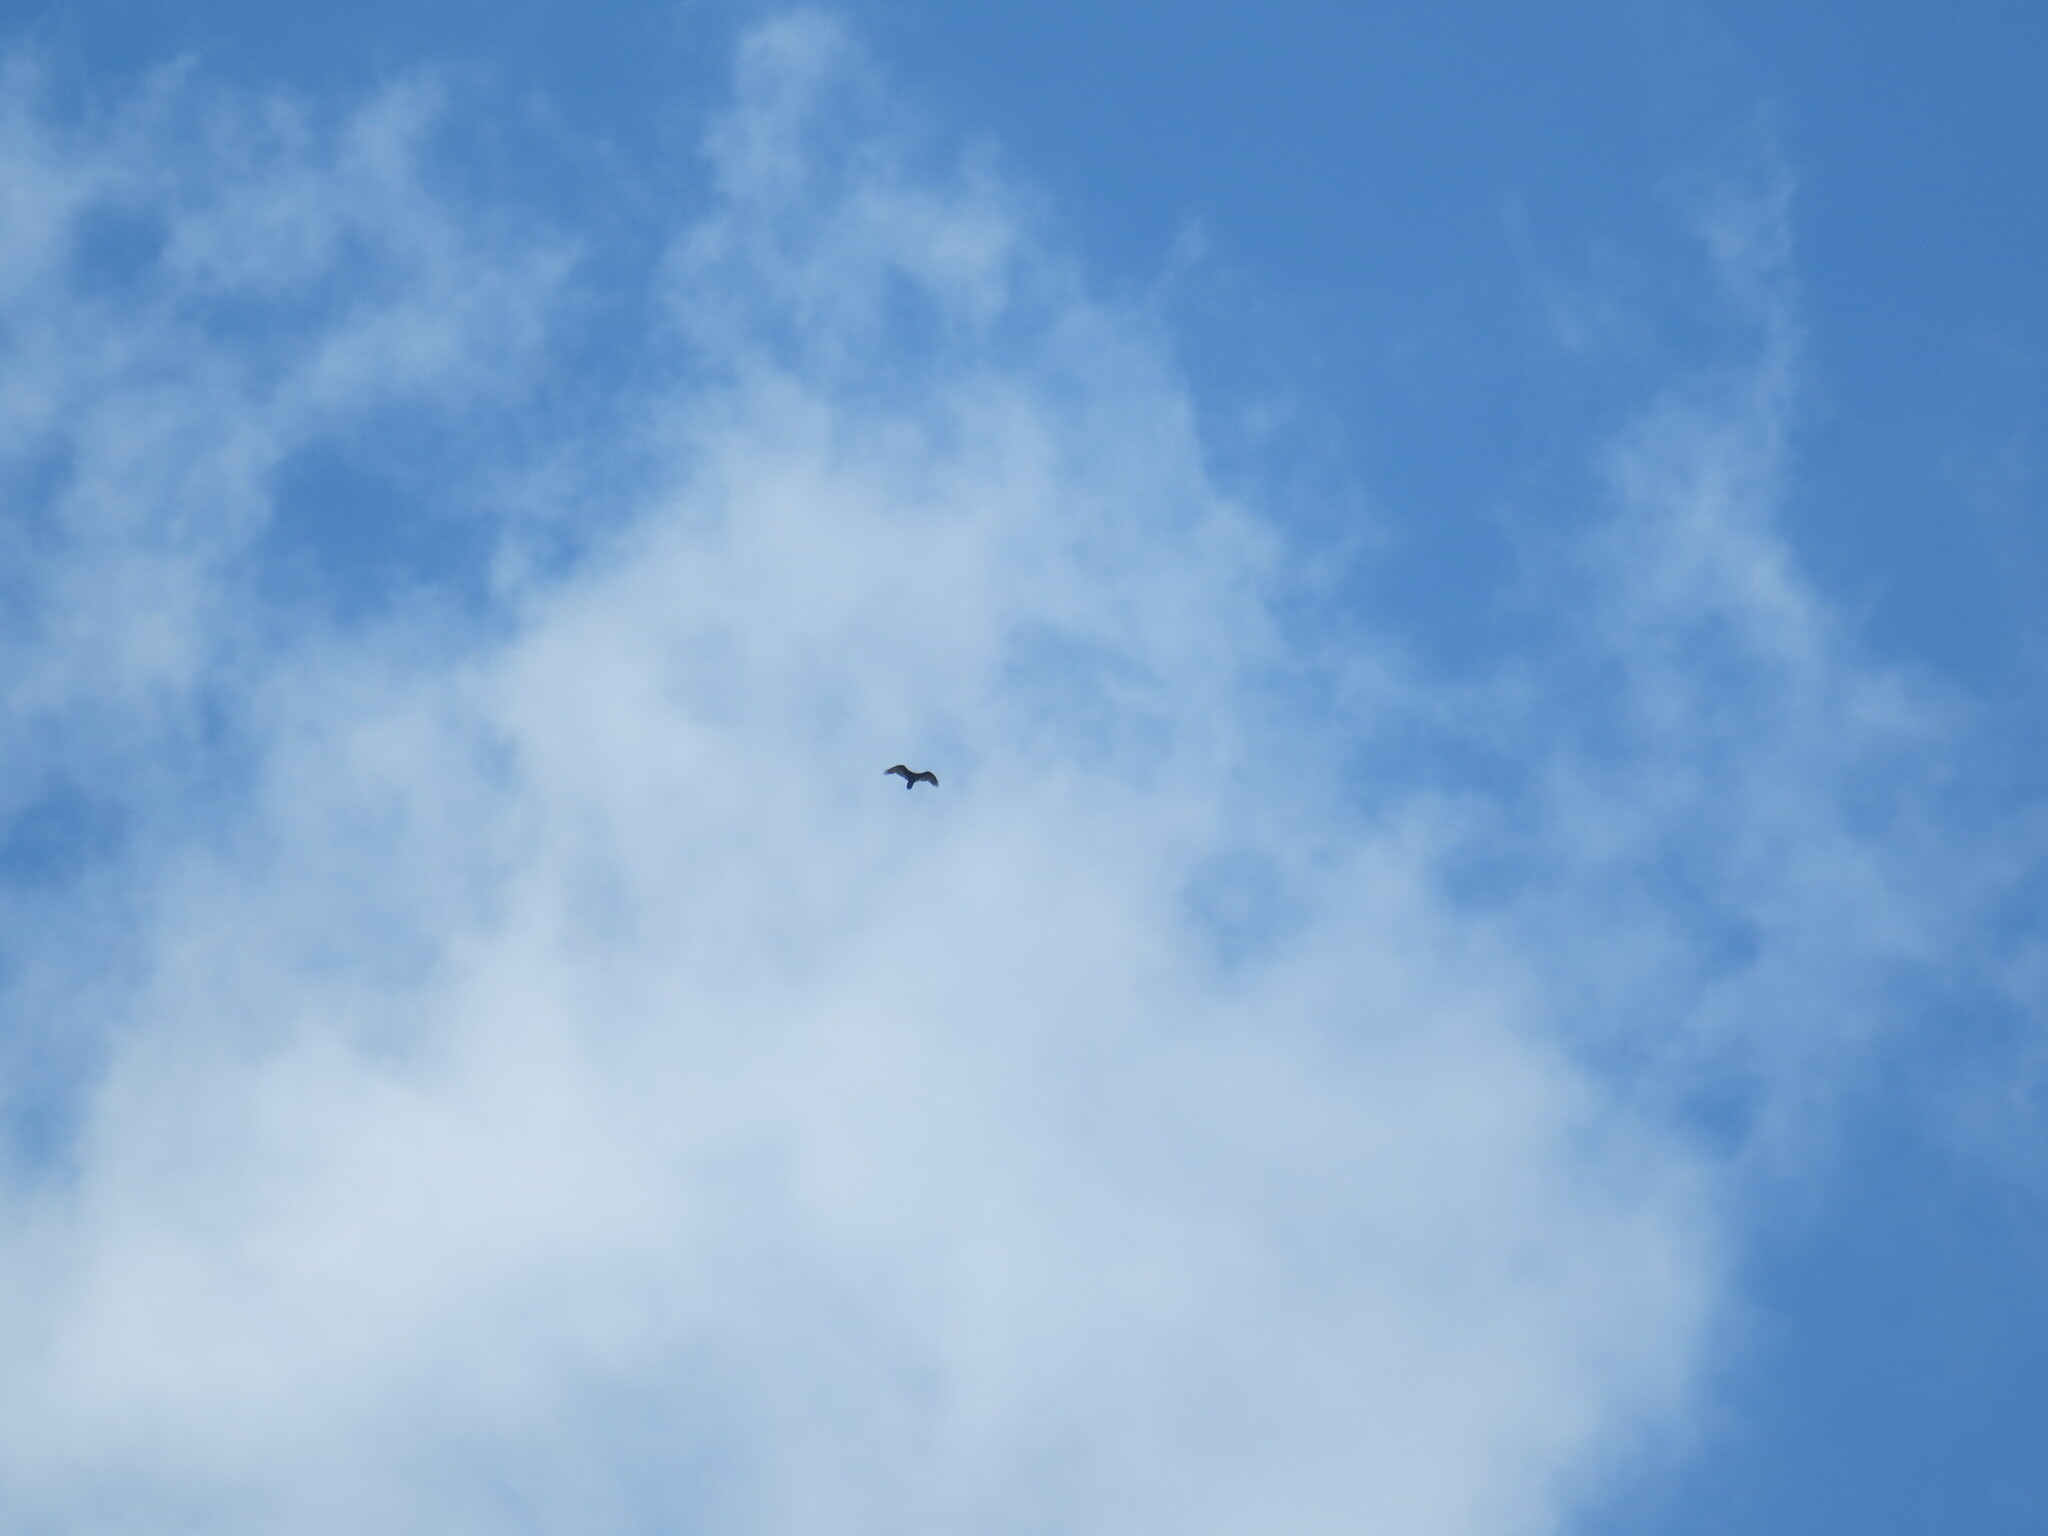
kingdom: Animalia
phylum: Chordata
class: Aves
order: Accipitriformes
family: Cathartidae
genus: Cathartes
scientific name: Cathartes aura
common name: Turkey vulture
